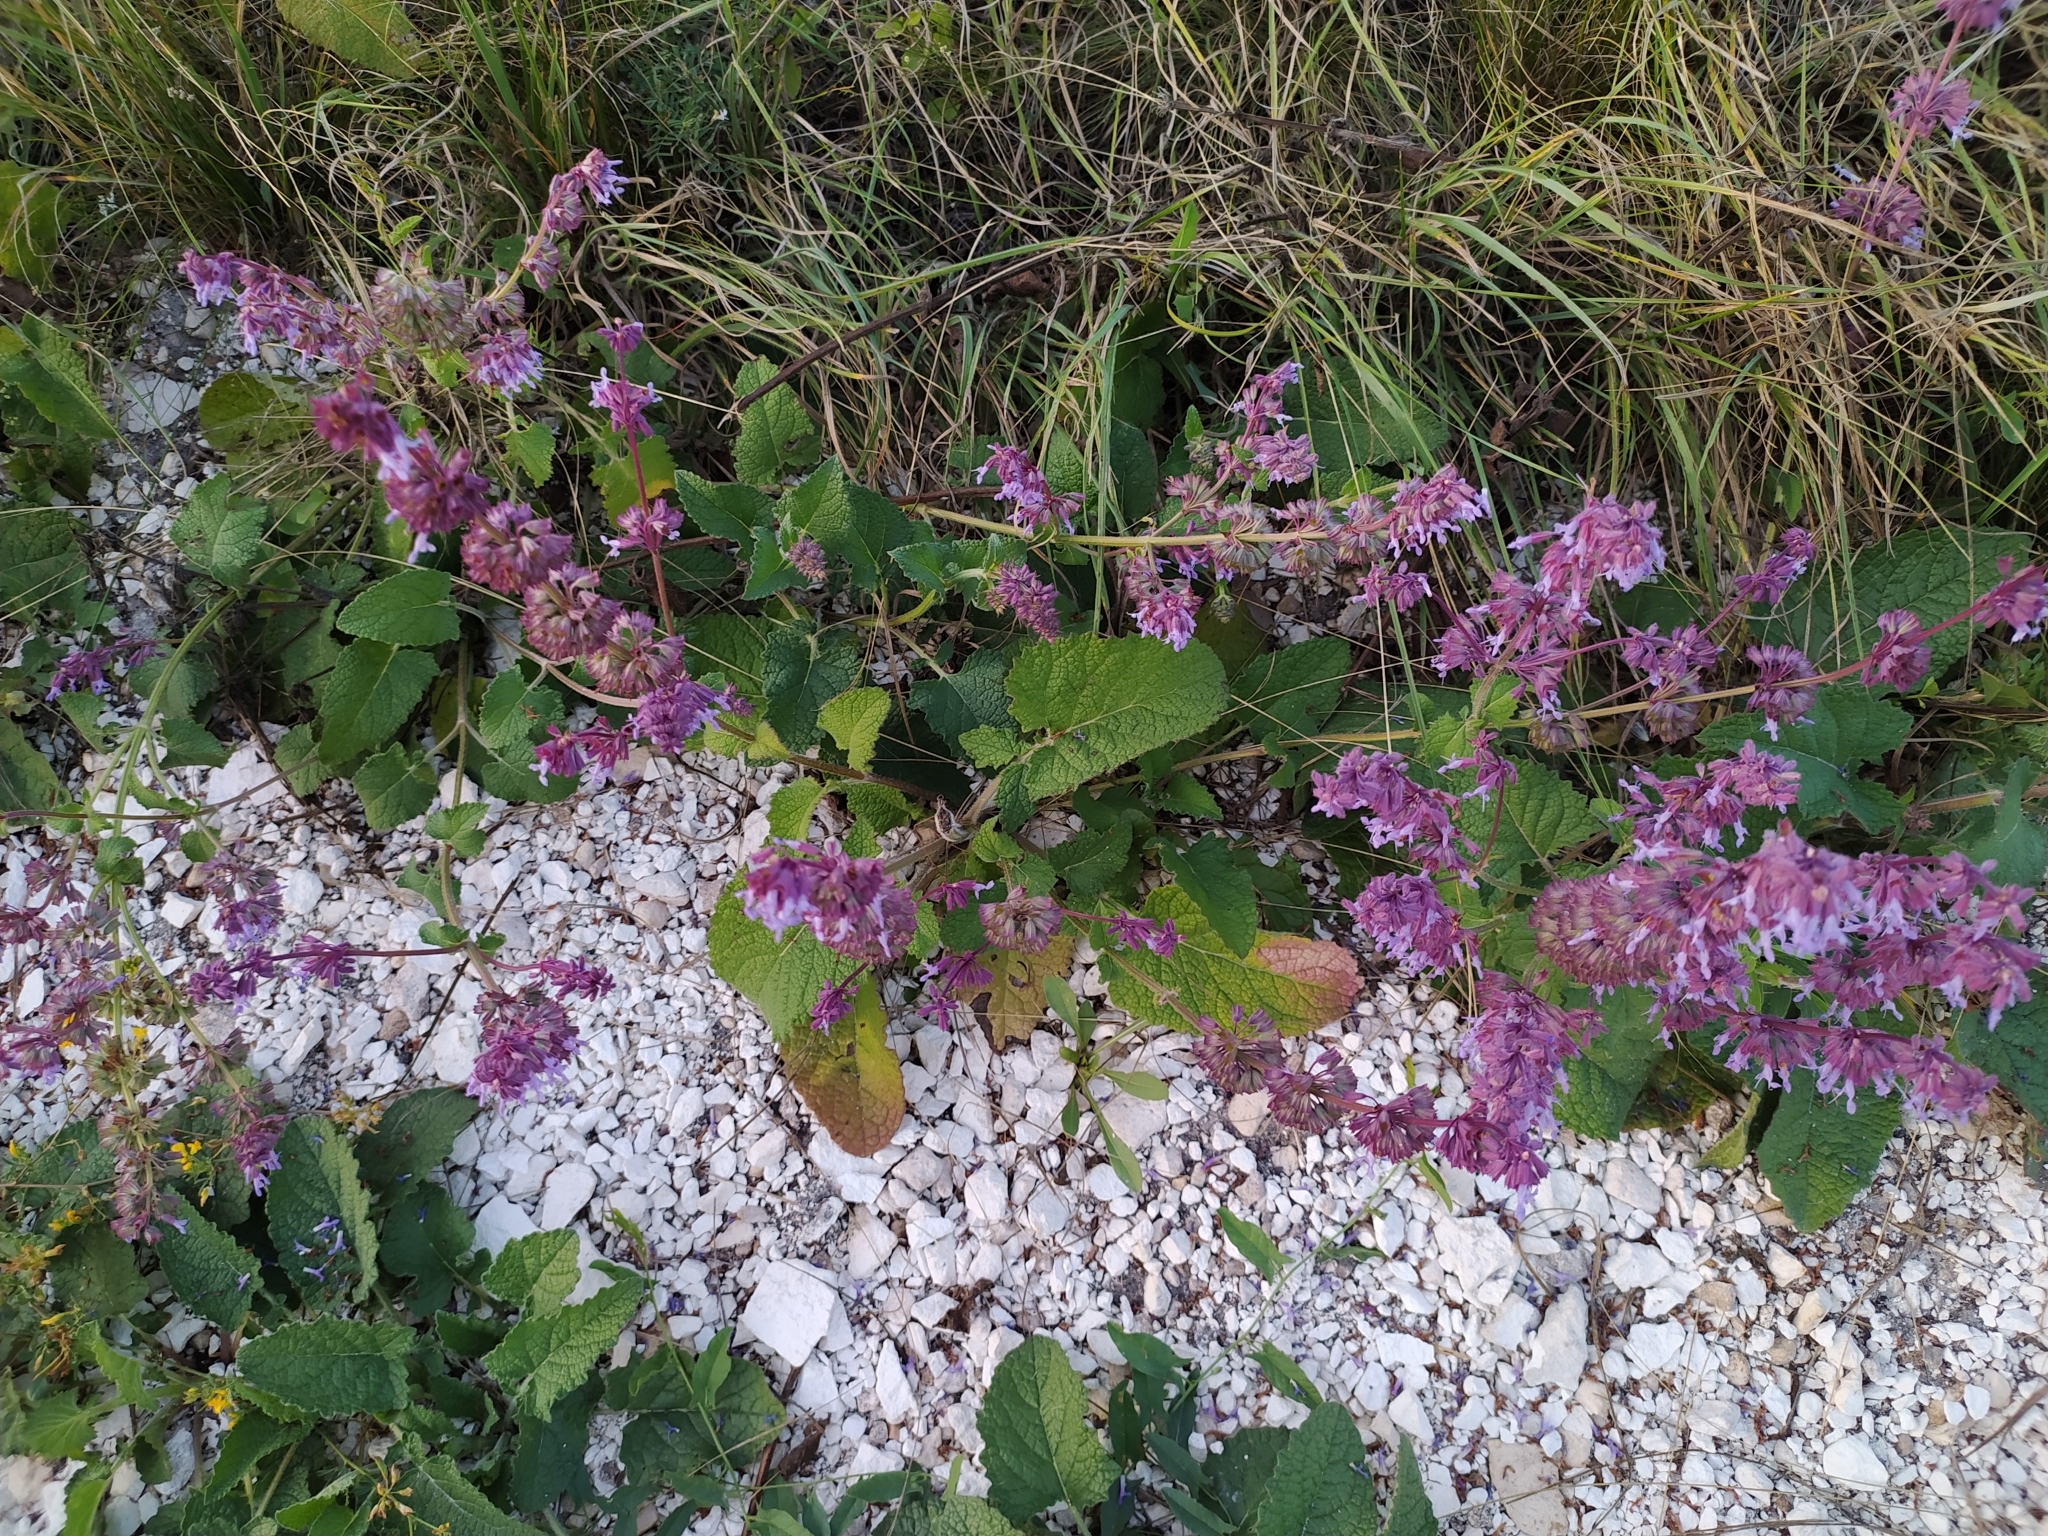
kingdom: Plantae
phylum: Tracheophyta
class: Magnoliopsida
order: Lamiales
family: Lamiaceae
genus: Salvia
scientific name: Salvia verticillata
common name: Whorled clary
